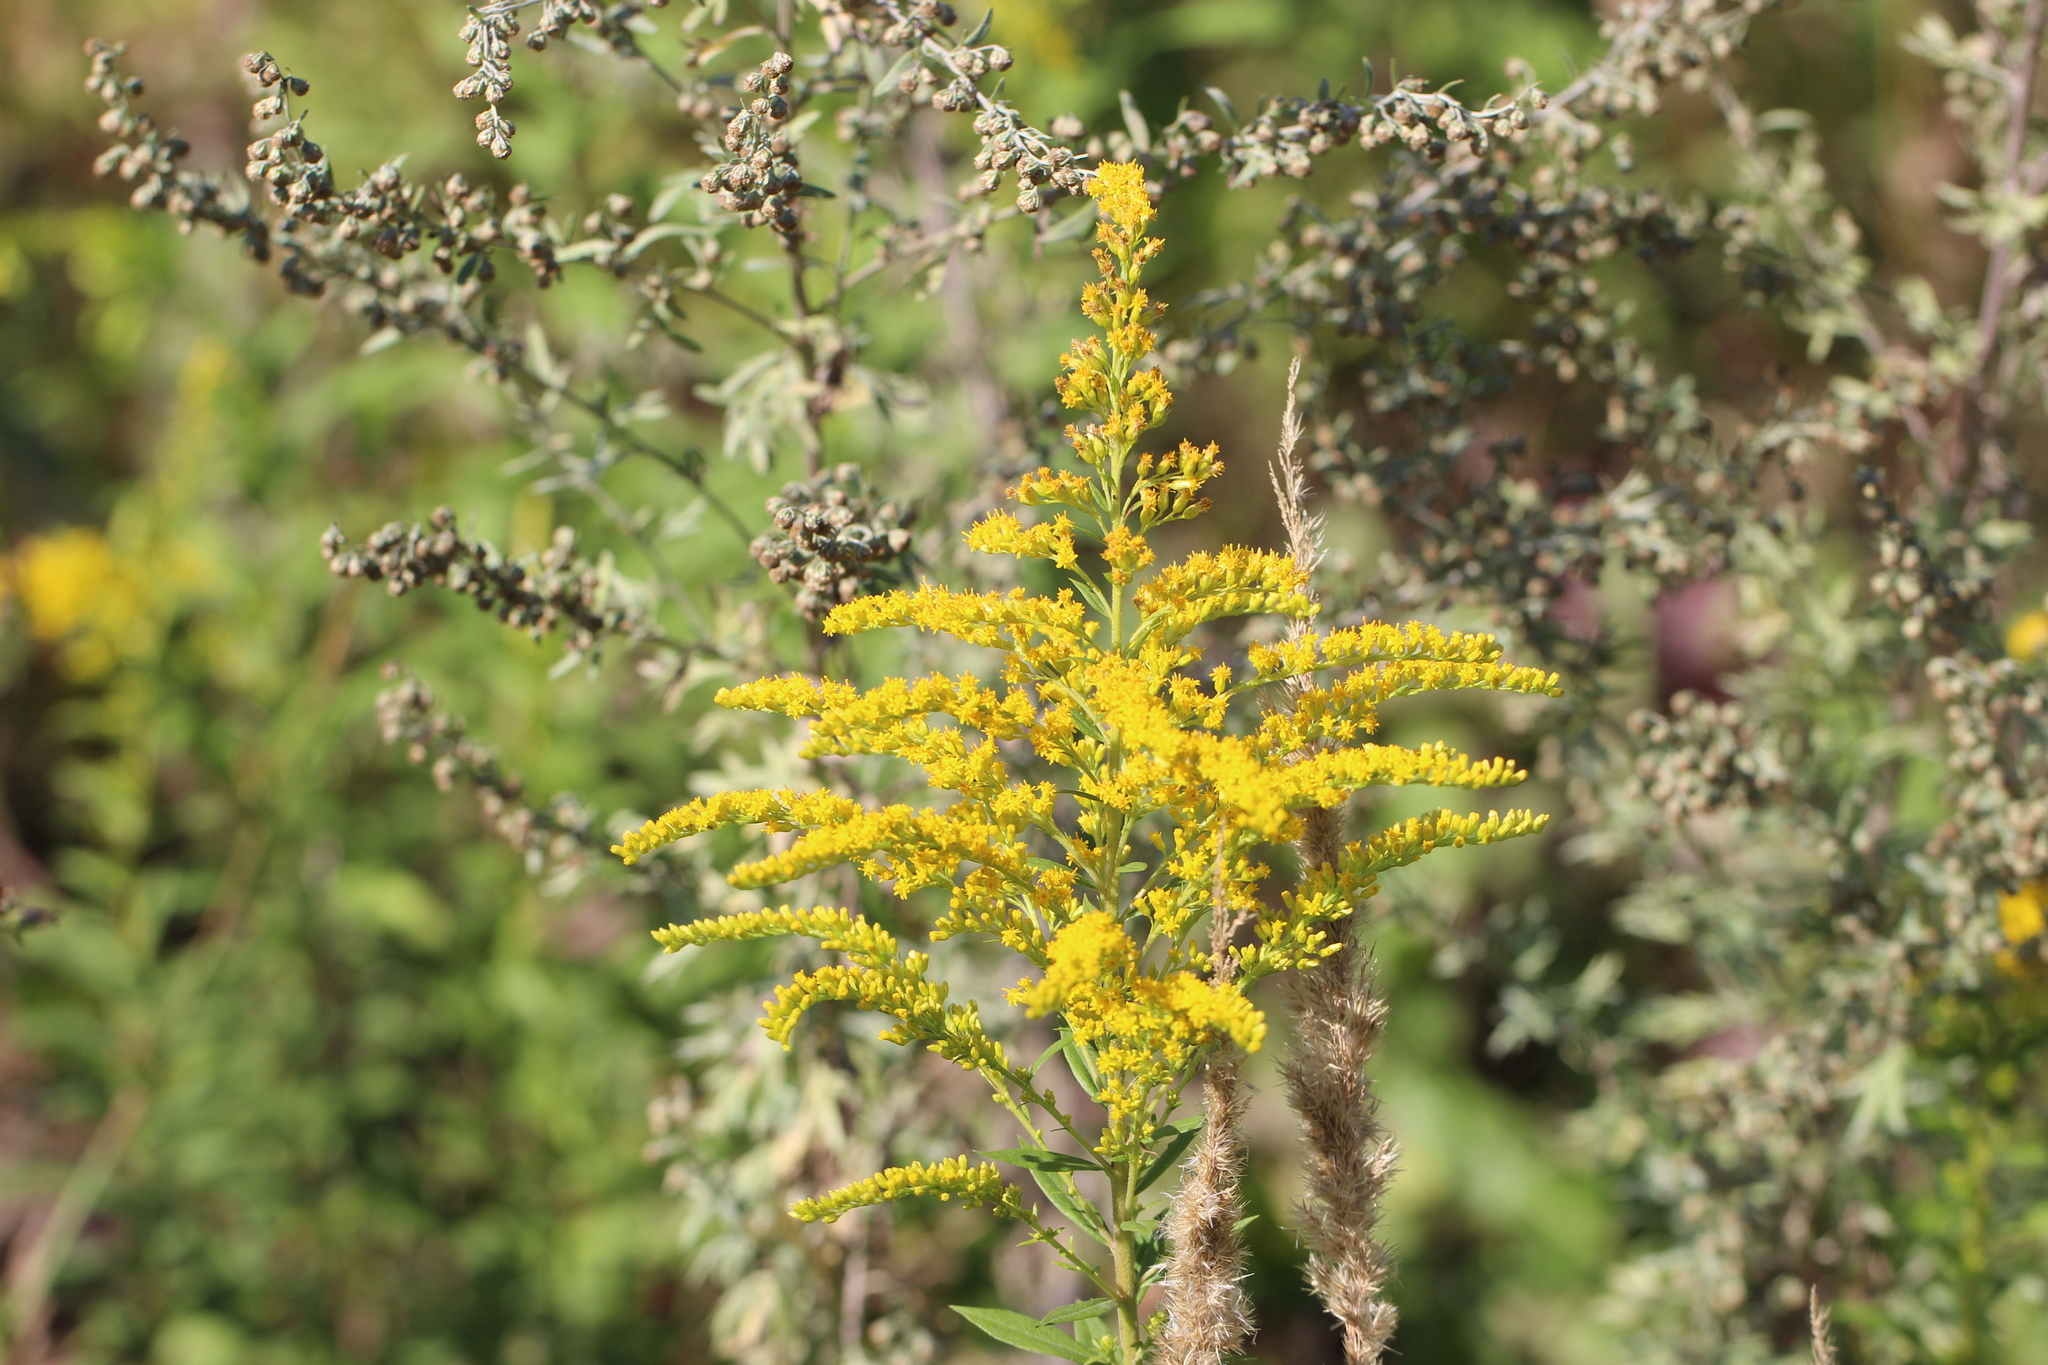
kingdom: Plantae
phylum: Tracheophyta
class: Magnoliopsida
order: Asterales
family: Asteraceae
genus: Solidago
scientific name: Solidago canadensis
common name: Canada goldenrod
